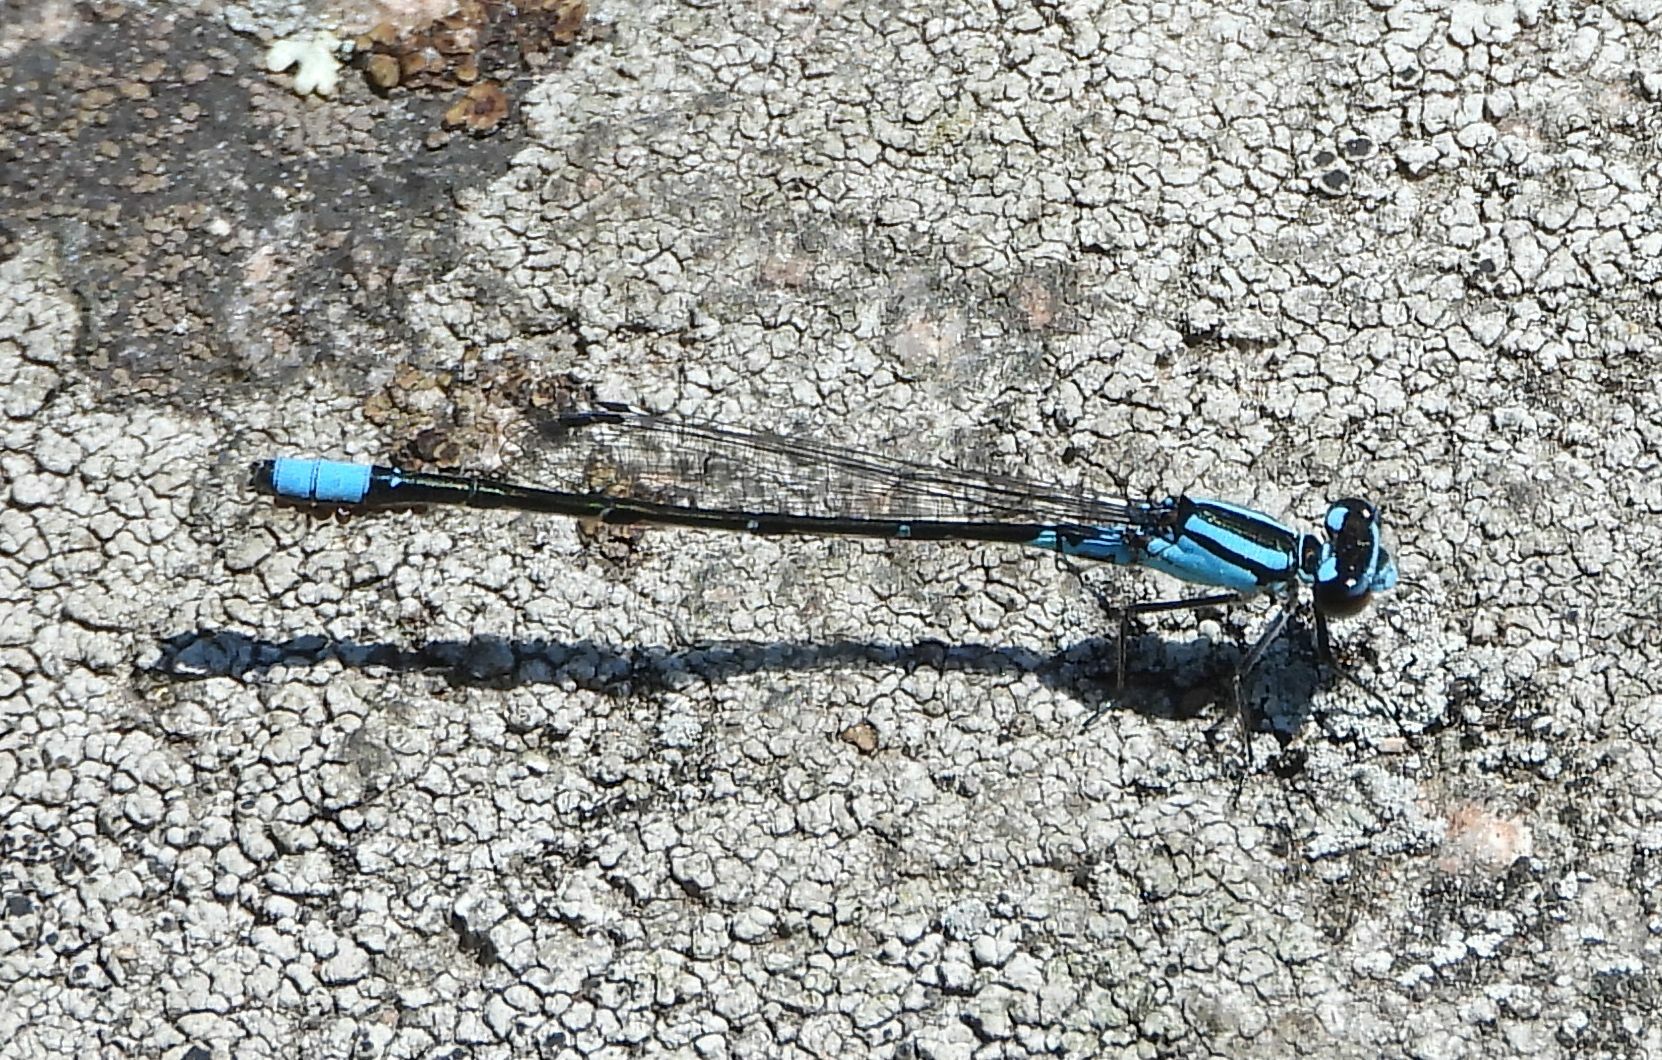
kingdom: Animalia
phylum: Arthropoda
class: Insecta
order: Odonata
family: Coenagrionidae
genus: Enallagma
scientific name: Enallagma geminatum
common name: Skimming bluet
